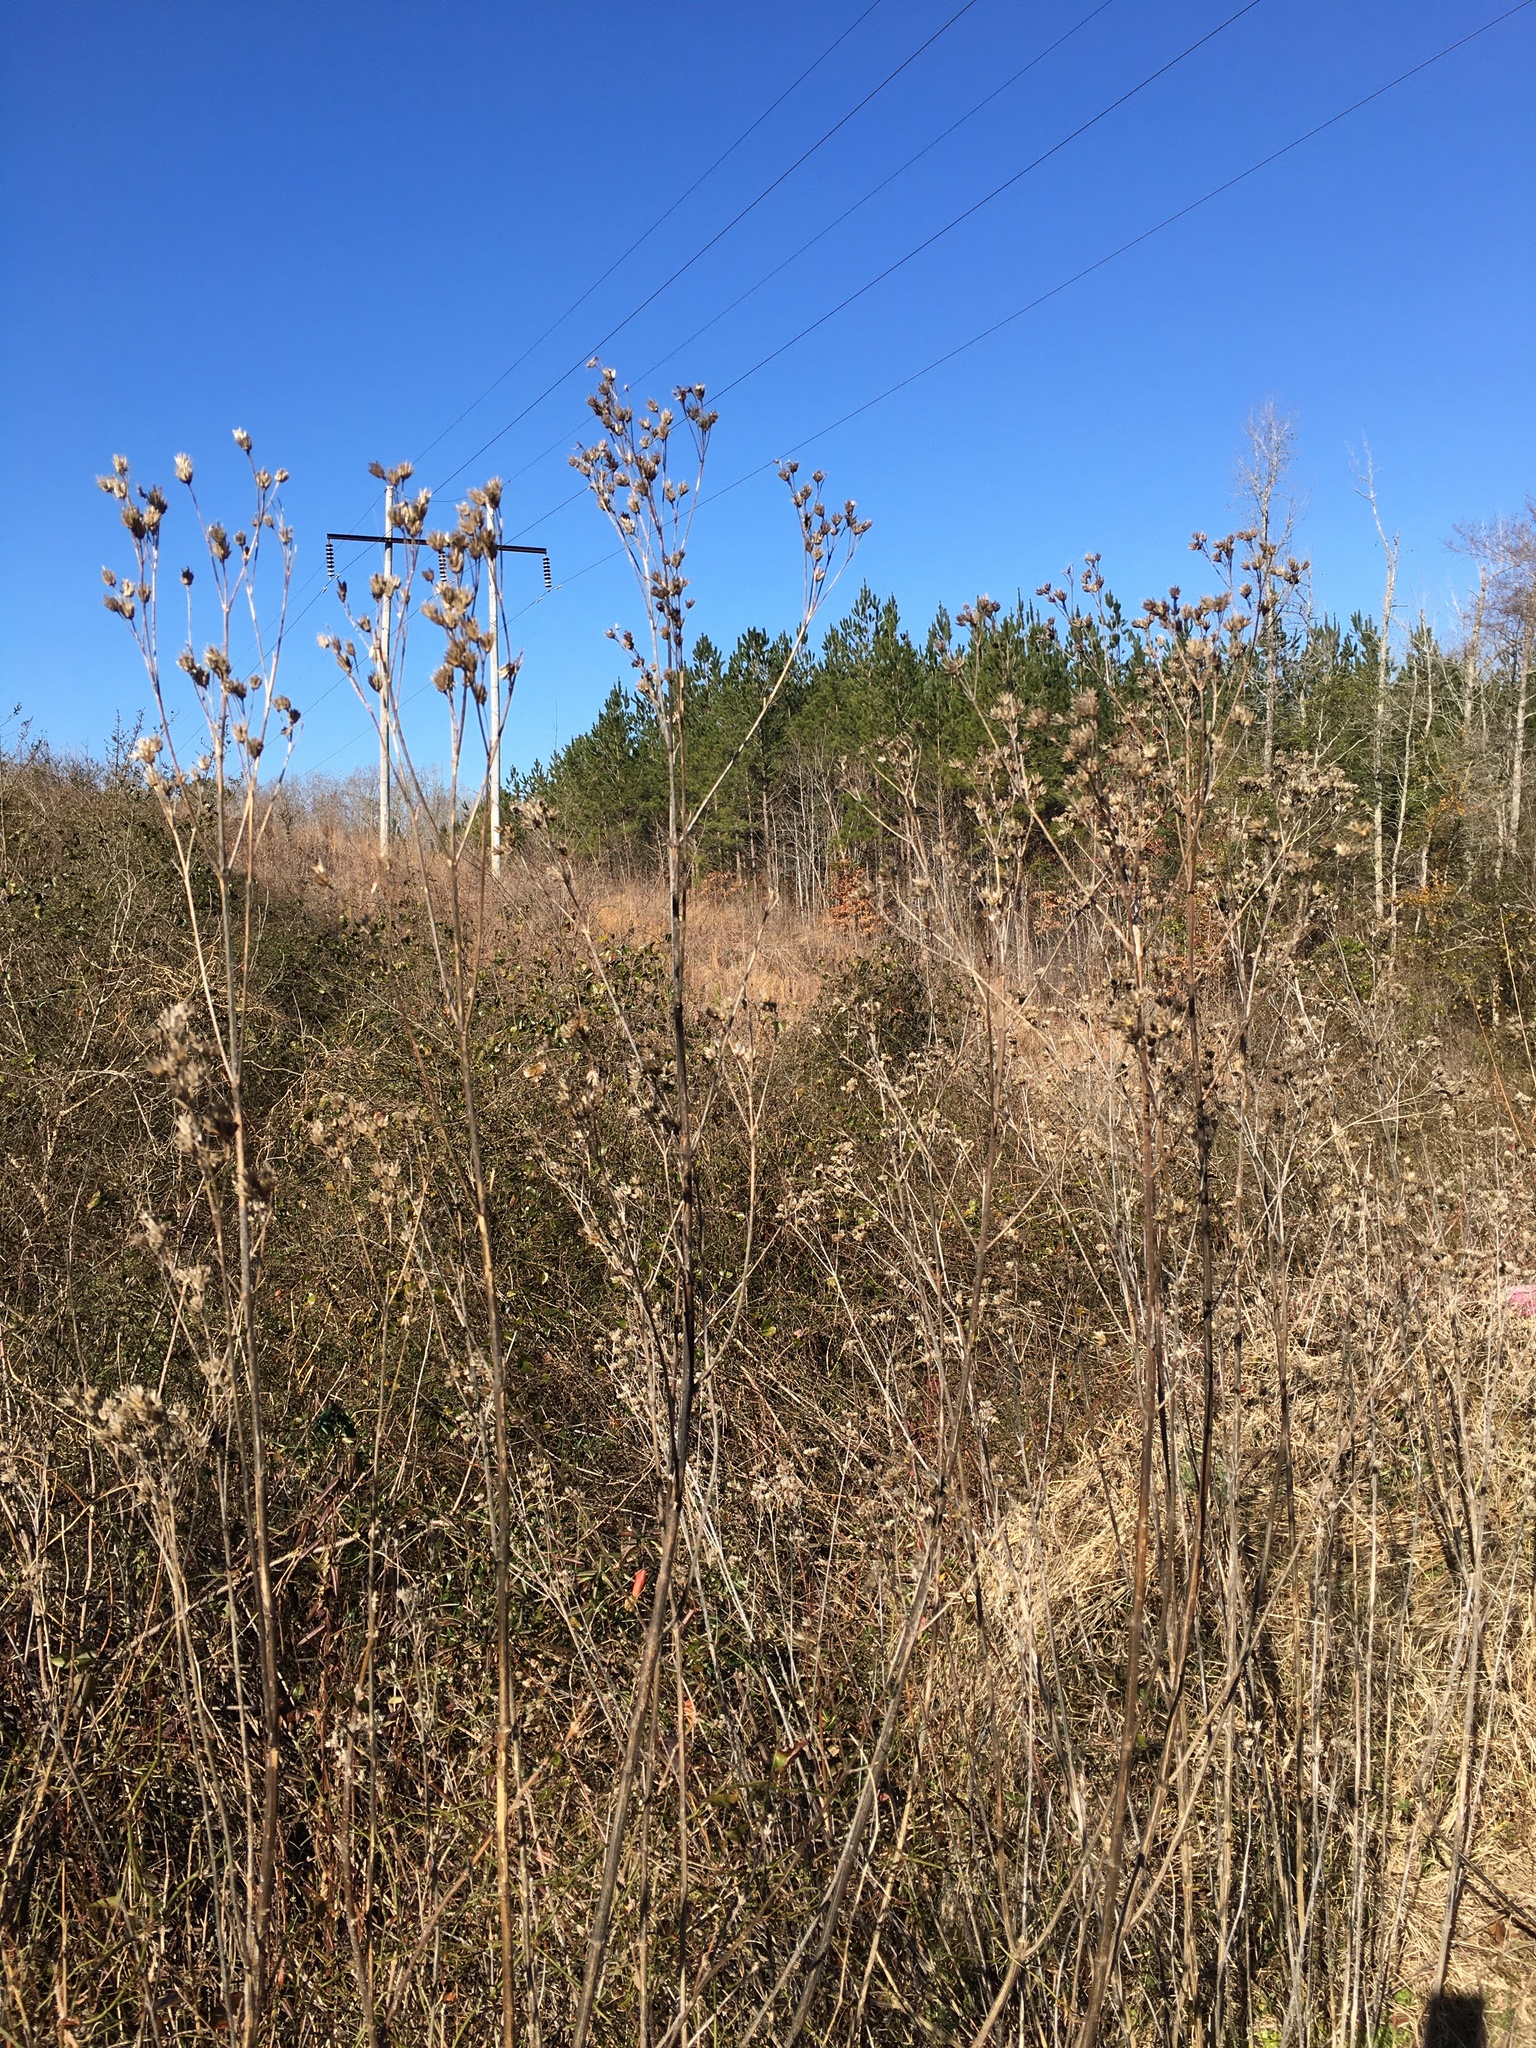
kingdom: Plantae
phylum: Tracheophyta
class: Magnoliopsida
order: Asterales
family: Asteraceae
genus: Verbesina
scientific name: Verbesina occidentalis
